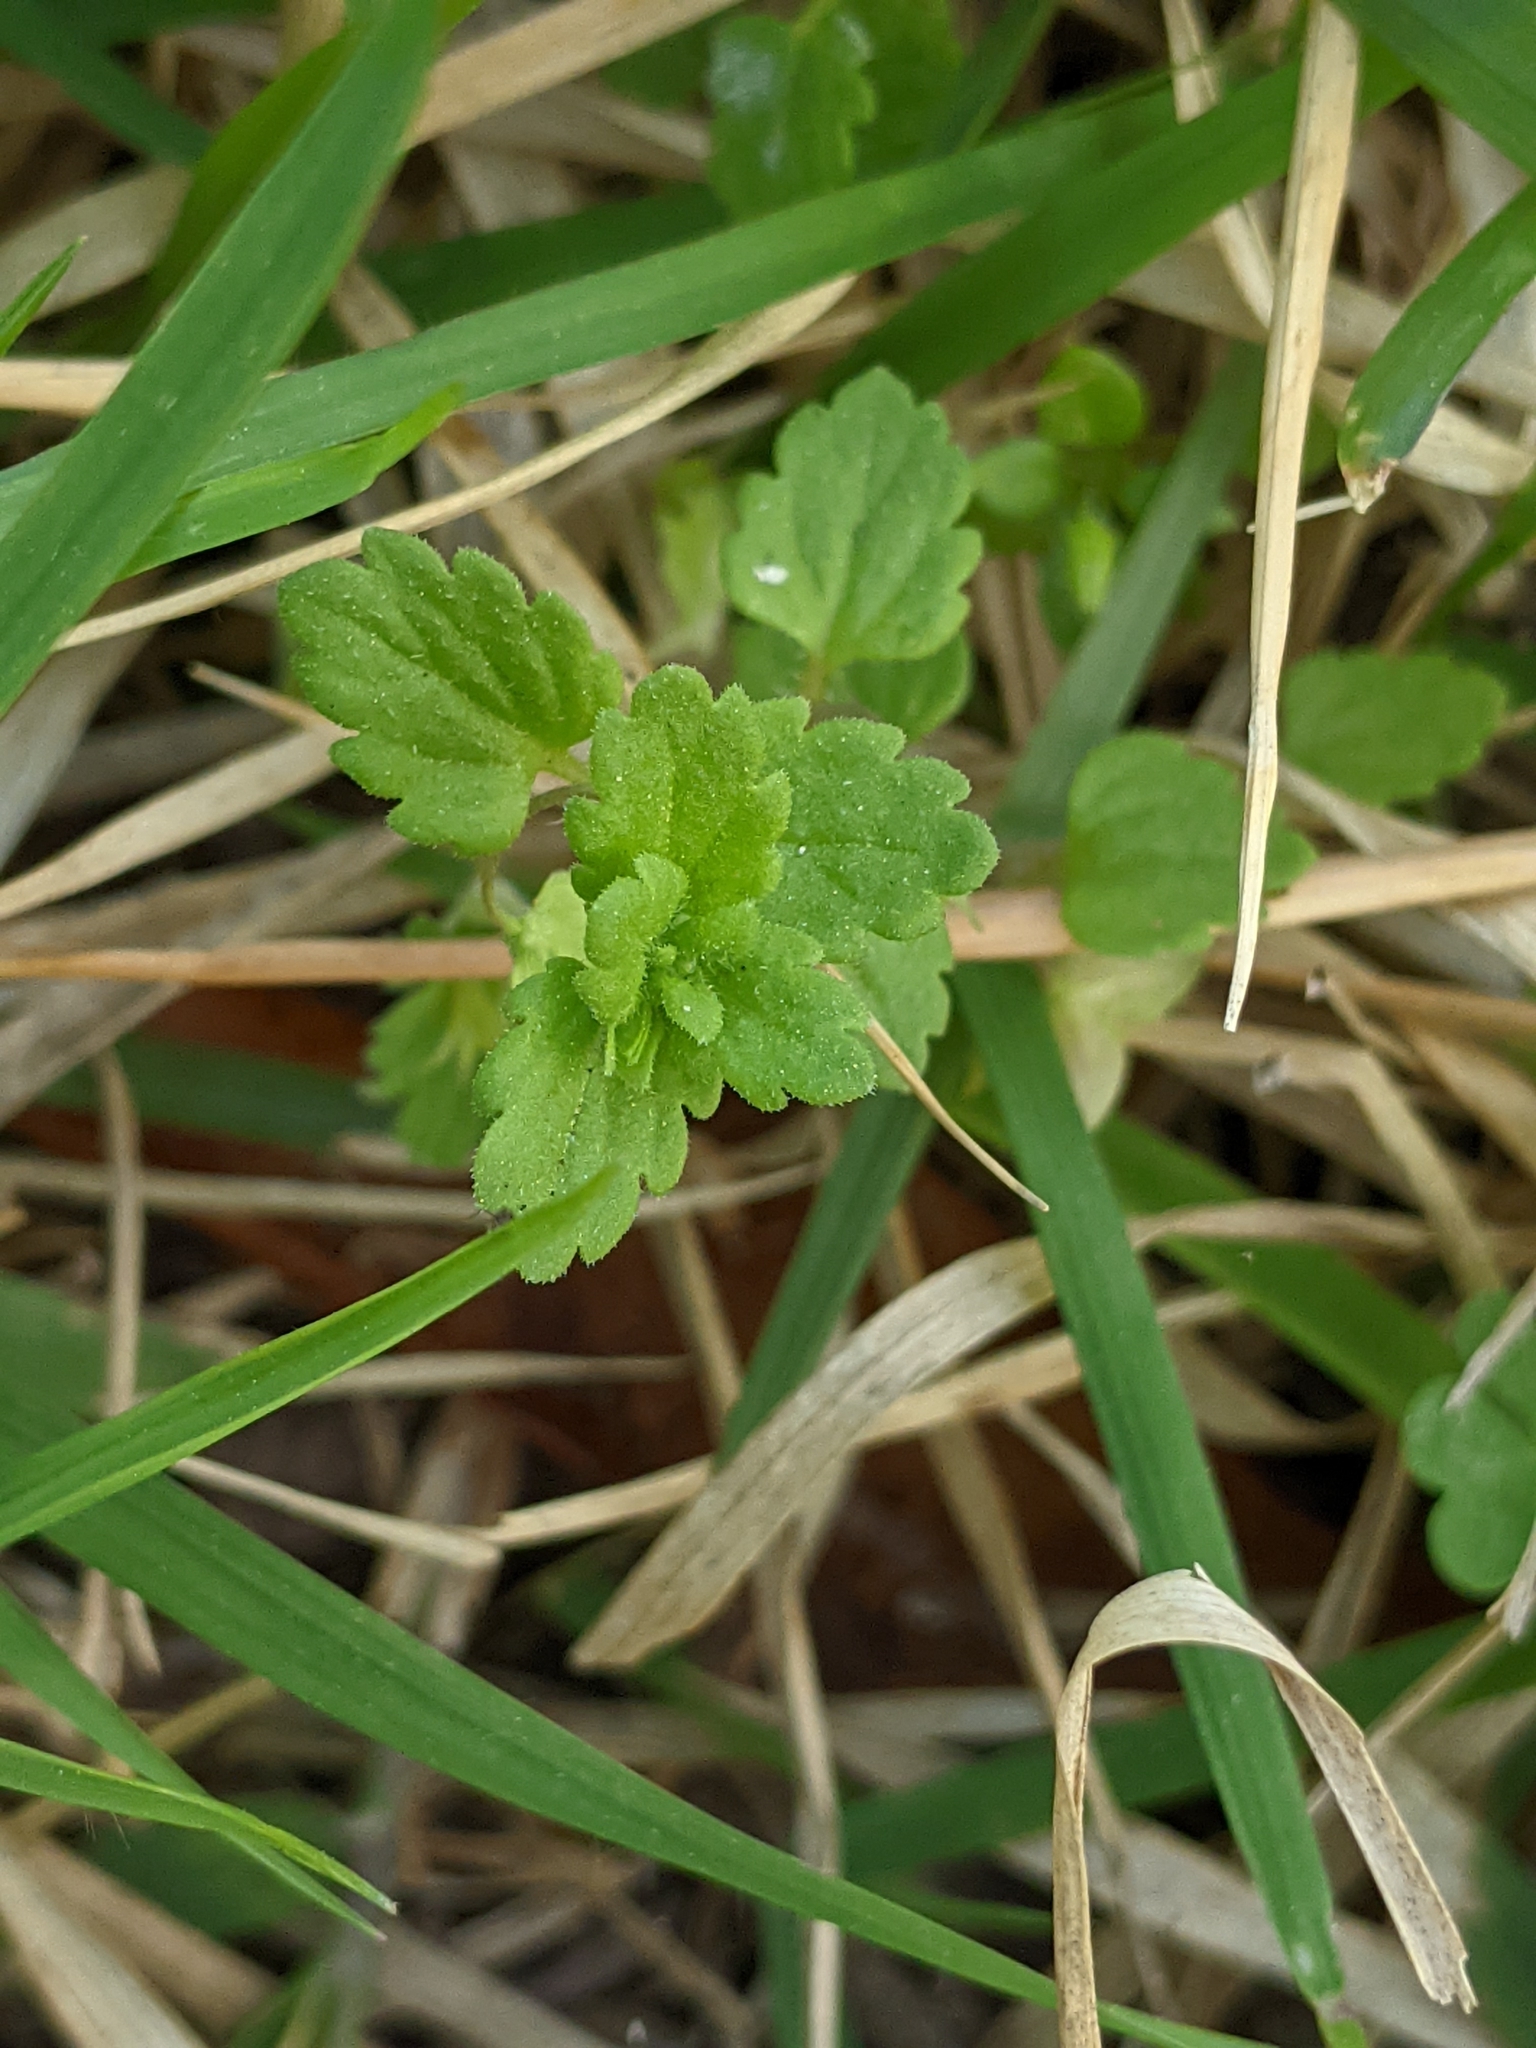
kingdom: Plantae
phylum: Tracheophyta
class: Magnoliopsida
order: Lamiales
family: Plantaginaceae
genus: Veronica
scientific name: Veronica polita
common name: Grey field-speedwell
